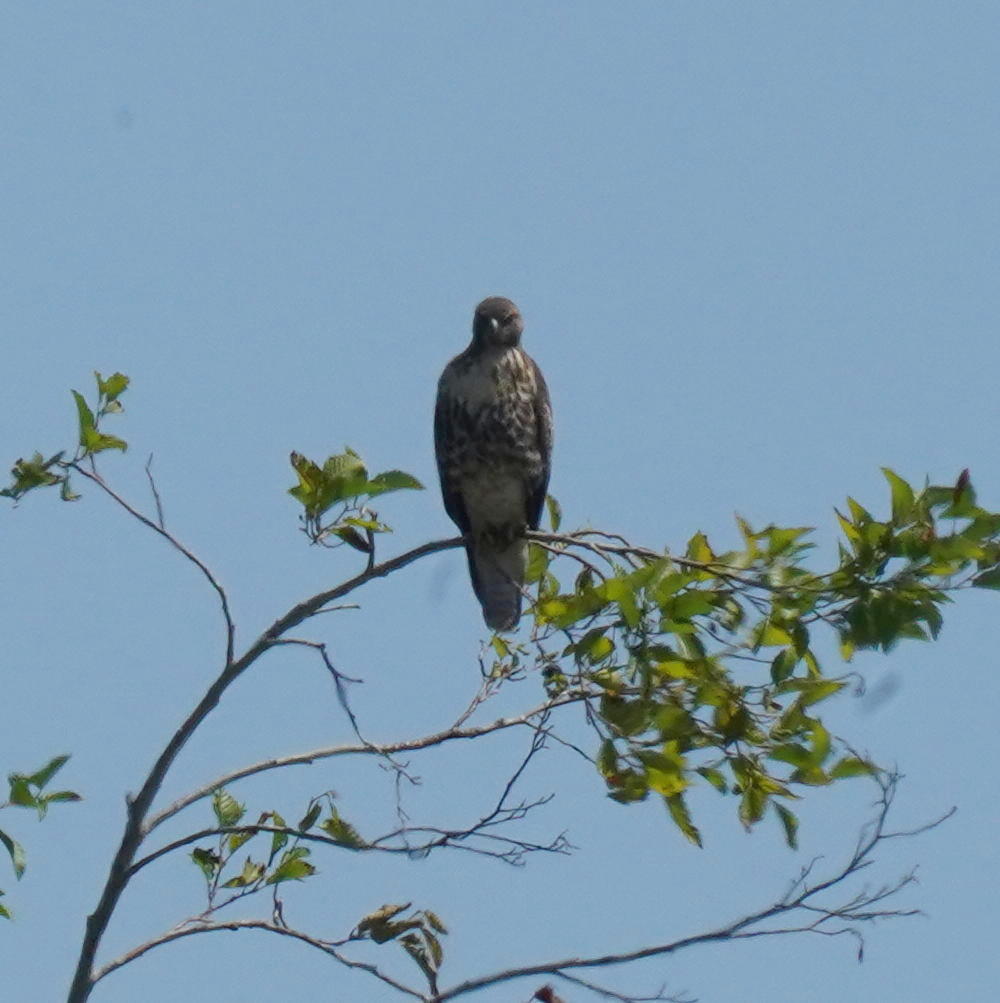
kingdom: Animalia
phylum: Chordata
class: Aves
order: Accipitriformes
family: Accipitridae
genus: Buteo
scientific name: Buteo jamaicensis
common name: Red-tailed hawk
